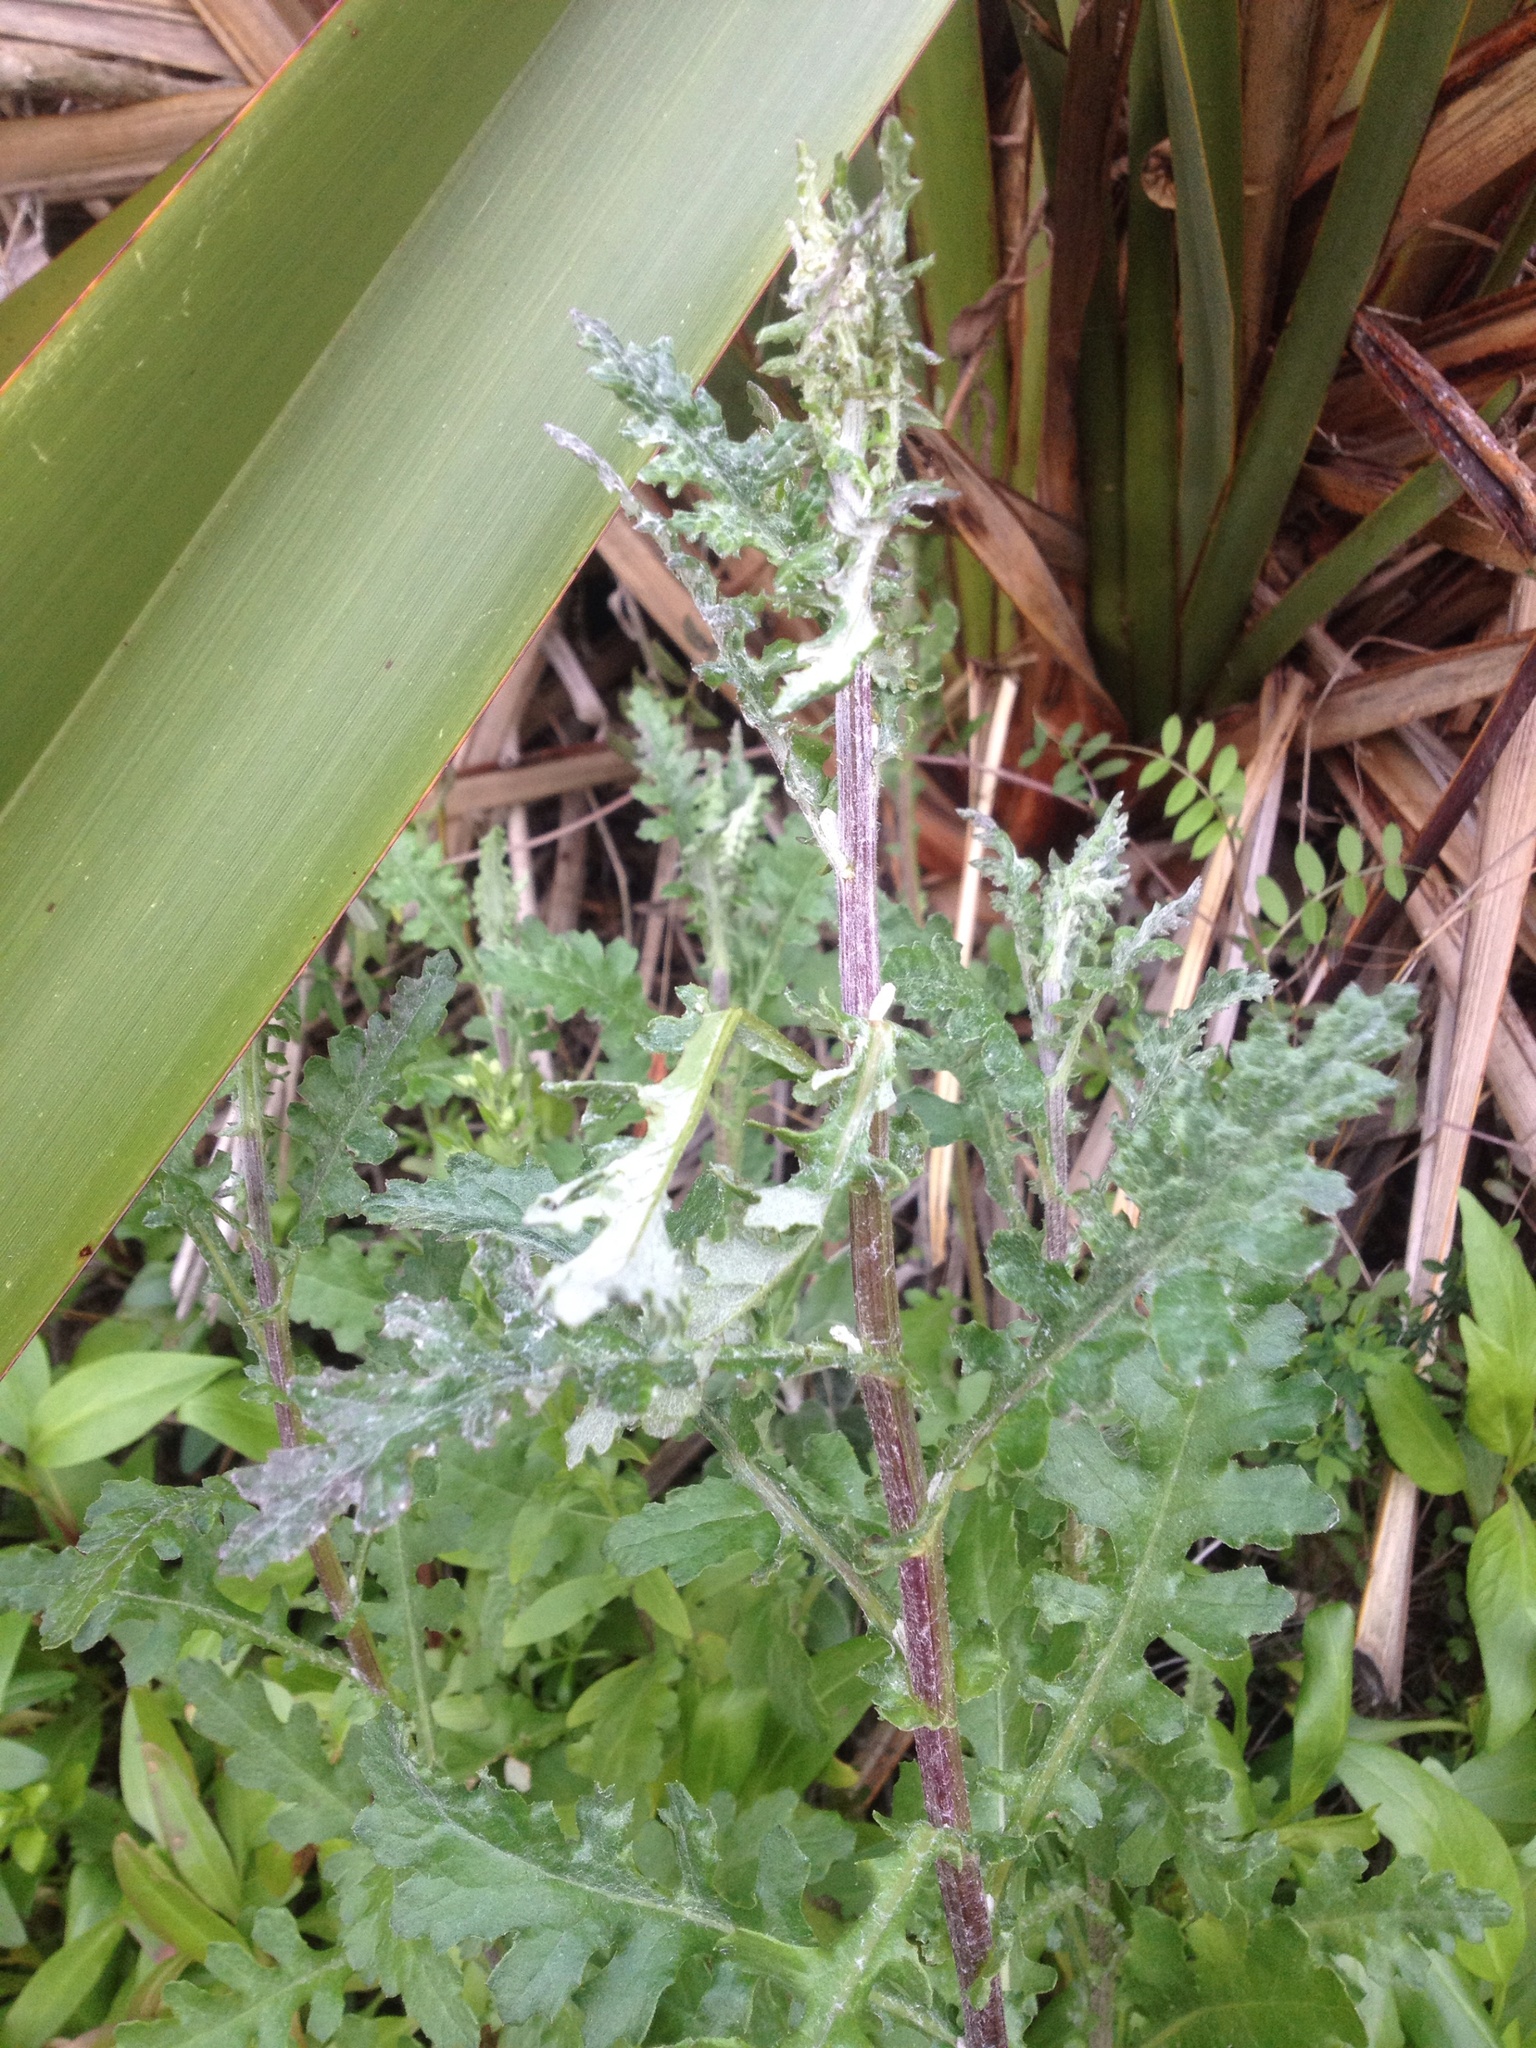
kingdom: Plantae
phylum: Tracheophyta
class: Magnoliopsida
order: Asterales
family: Asteraceae
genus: Senecio
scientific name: Senecio glomeratus
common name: Cutleaf burnweed
